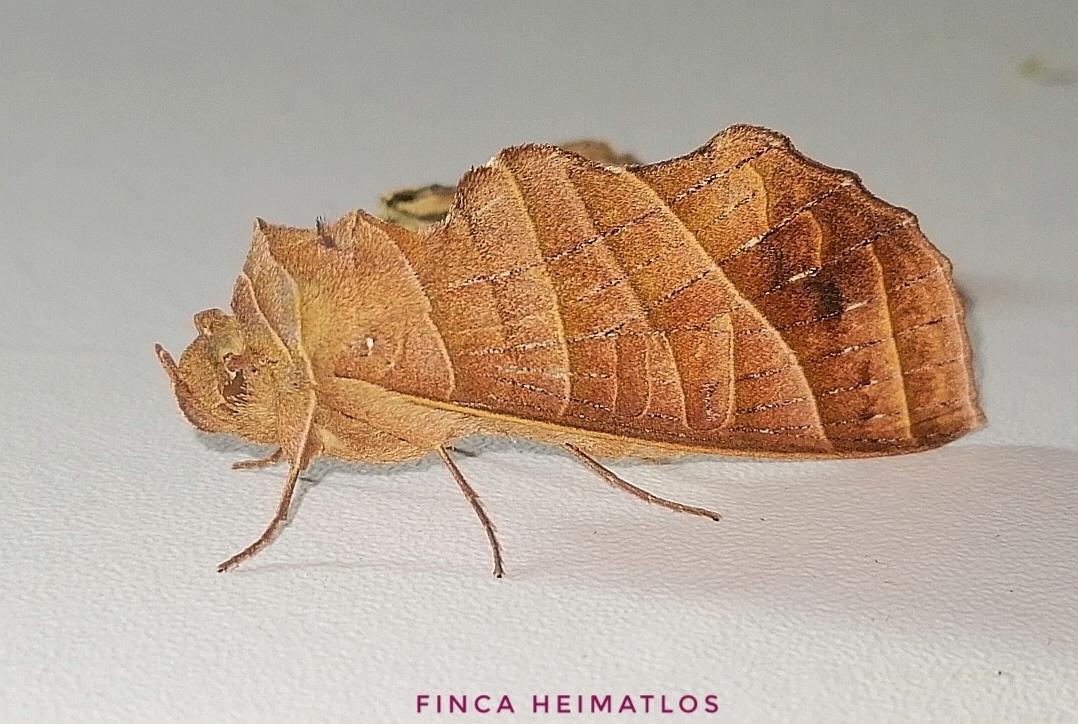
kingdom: Animalia
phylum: Arthropoda
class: Insecta
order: Lepidoptera
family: Notodontidae
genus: Antaea
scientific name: Antaea lichyi
